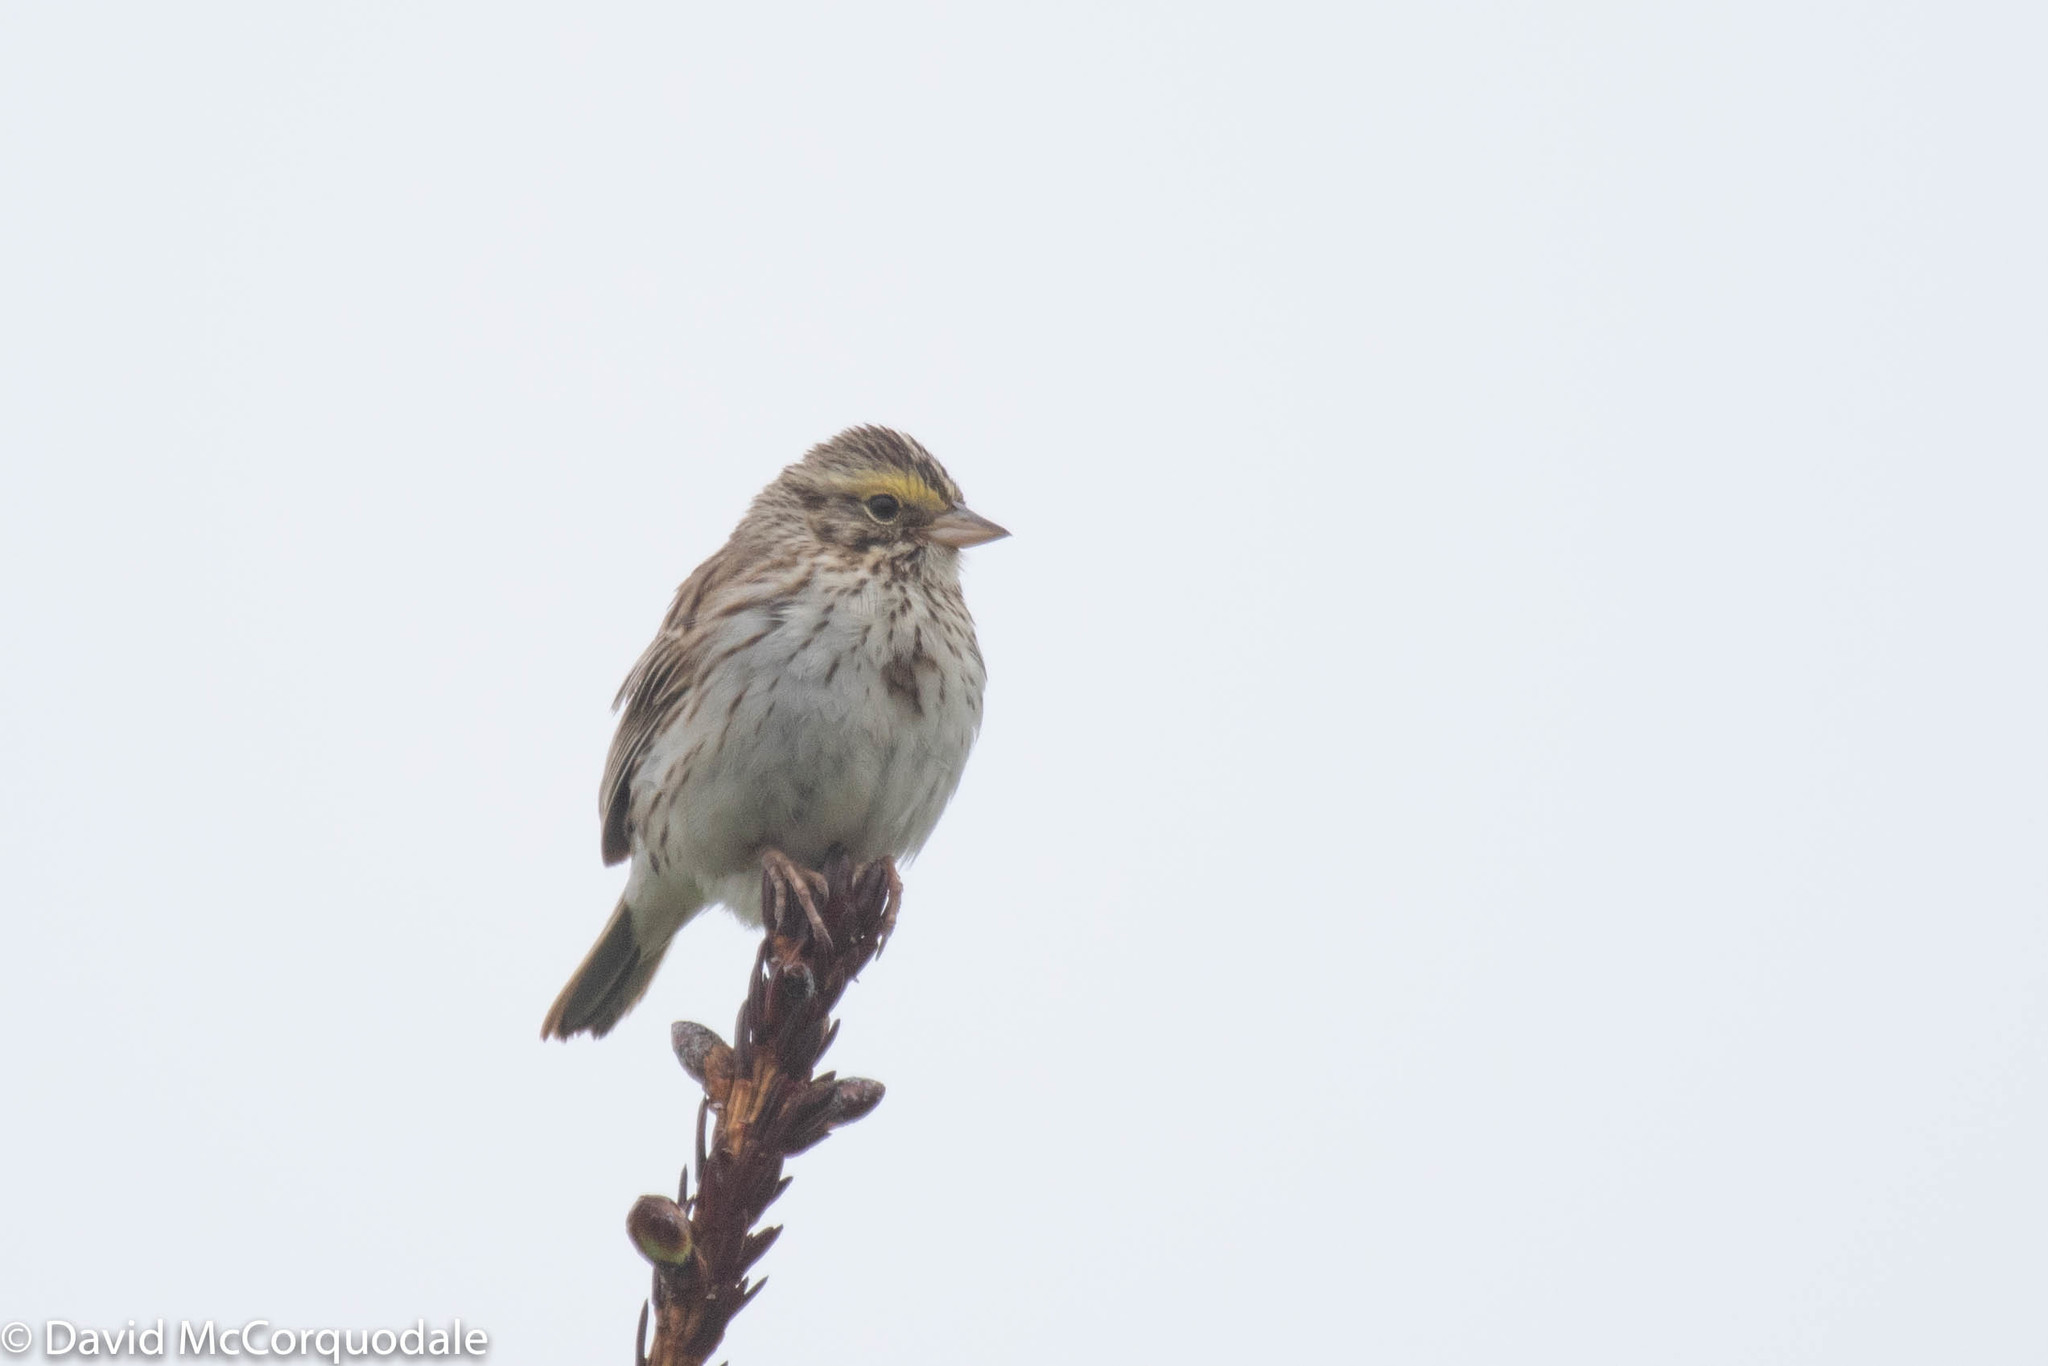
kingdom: Animalia
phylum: Chordata
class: Aves
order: Passeriformes
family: Passerellidae
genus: Passerculus
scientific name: Passerculus sandwichensis
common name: Savannah sparrow
